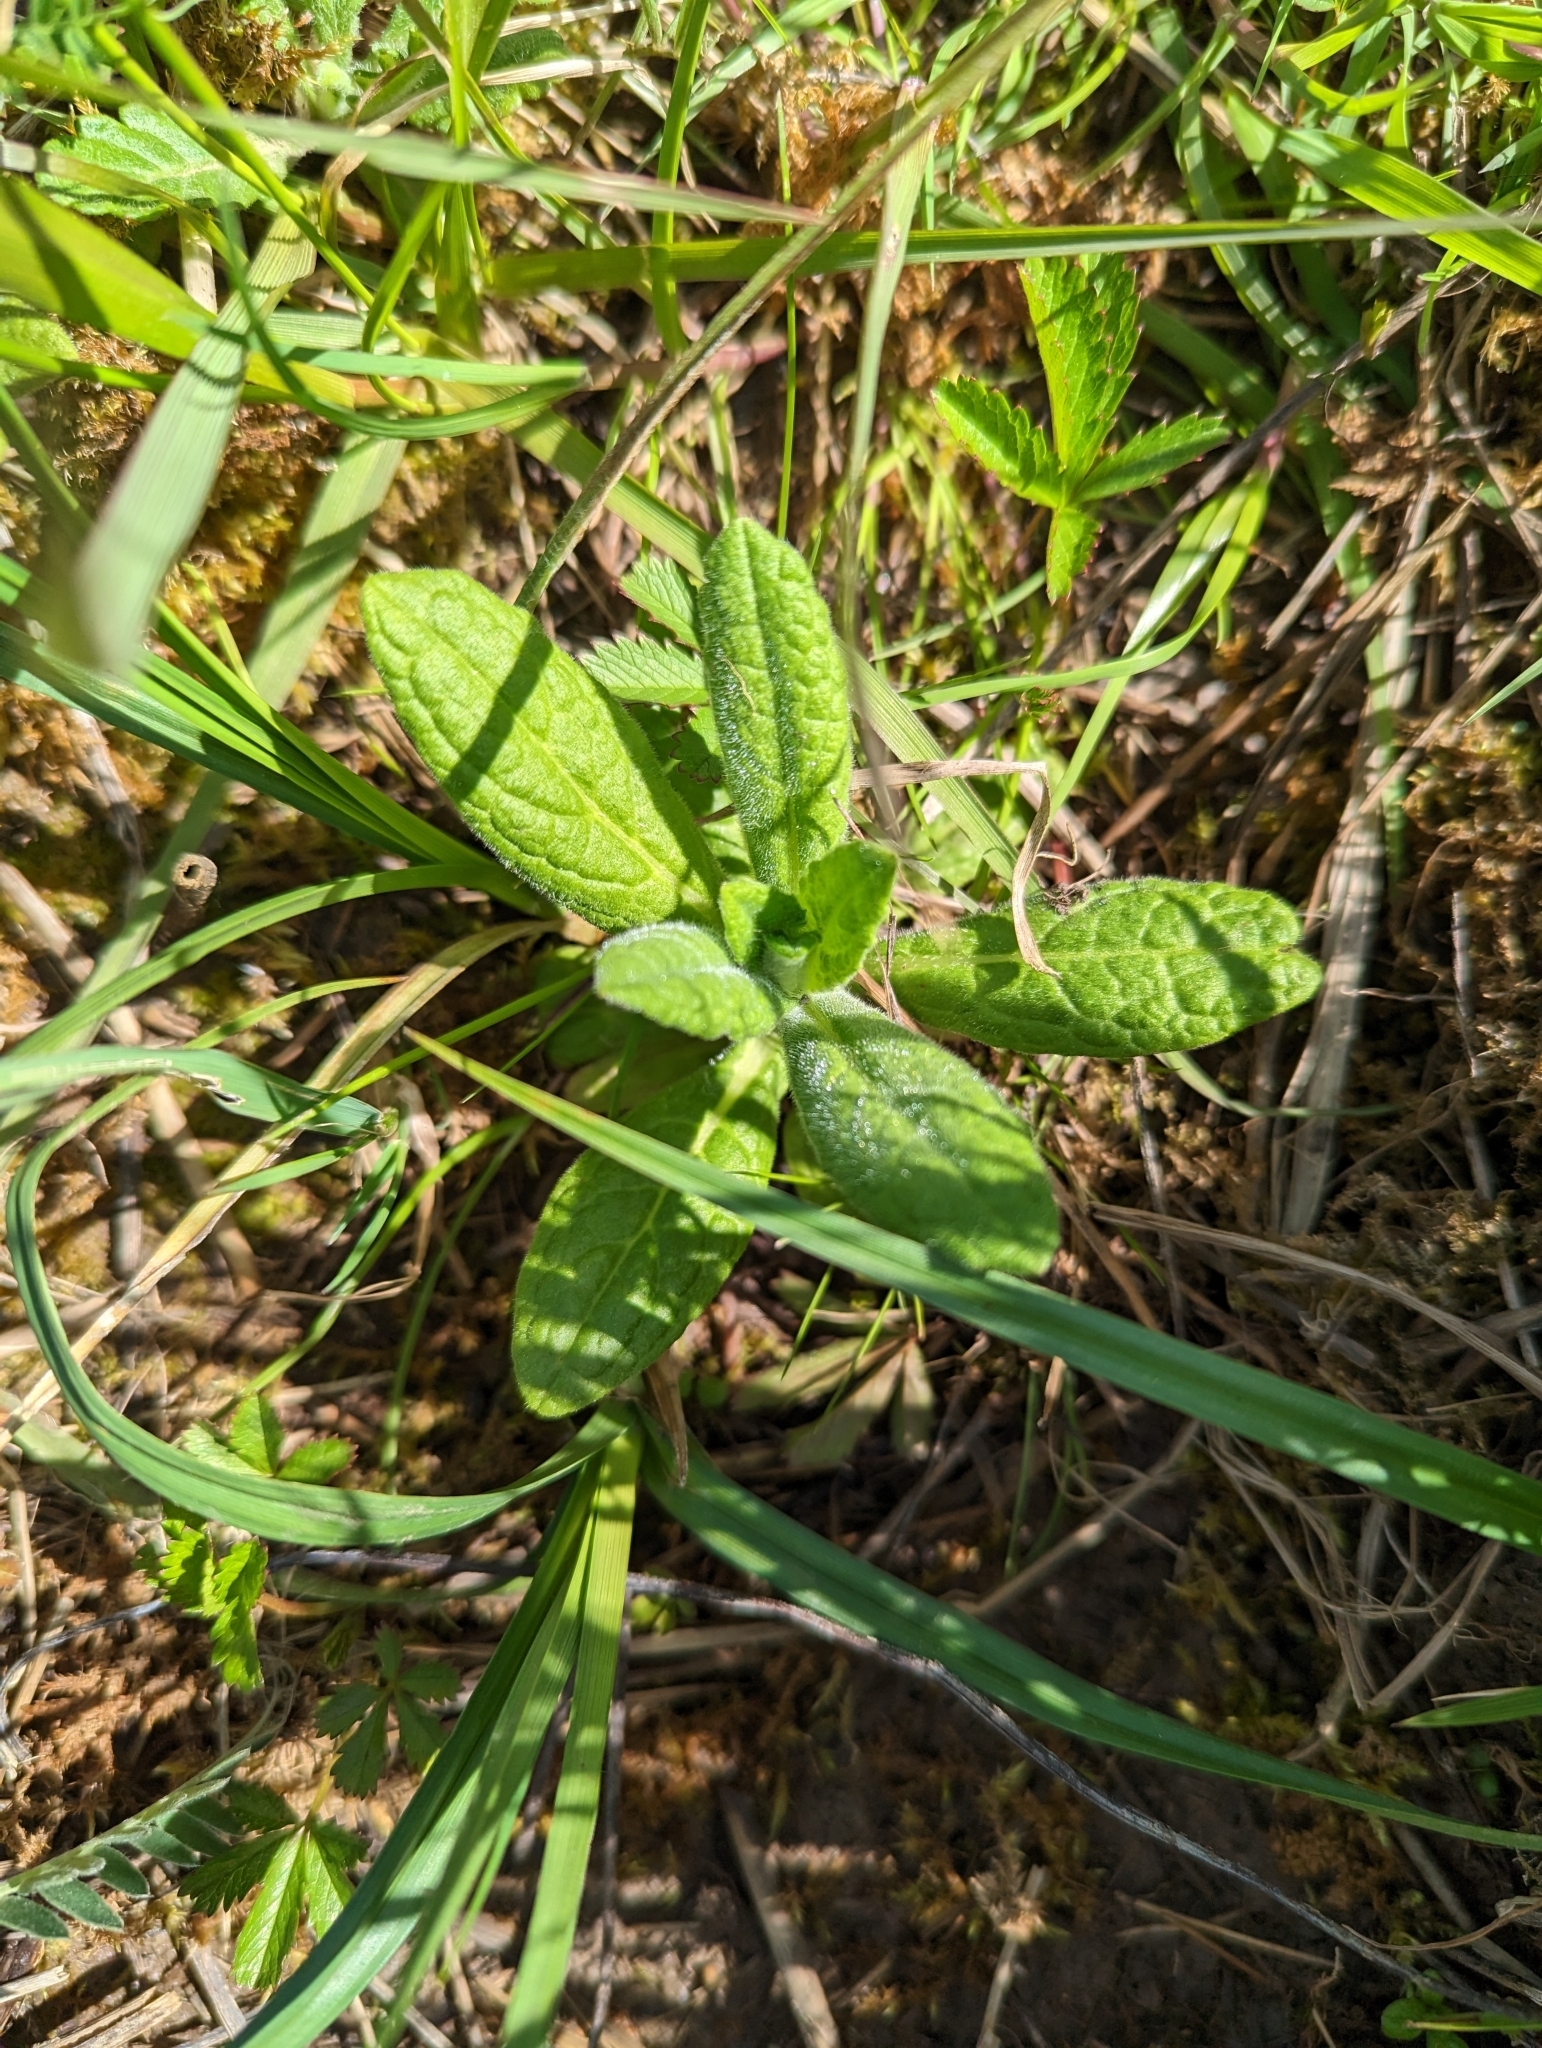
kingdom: Plantae
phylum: Tracheophyta
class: Magnoliopsida
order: Asterales
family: Asteraceae
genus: Pulicaria
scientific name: Pulicaria dysenterica
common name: Common fleabane
